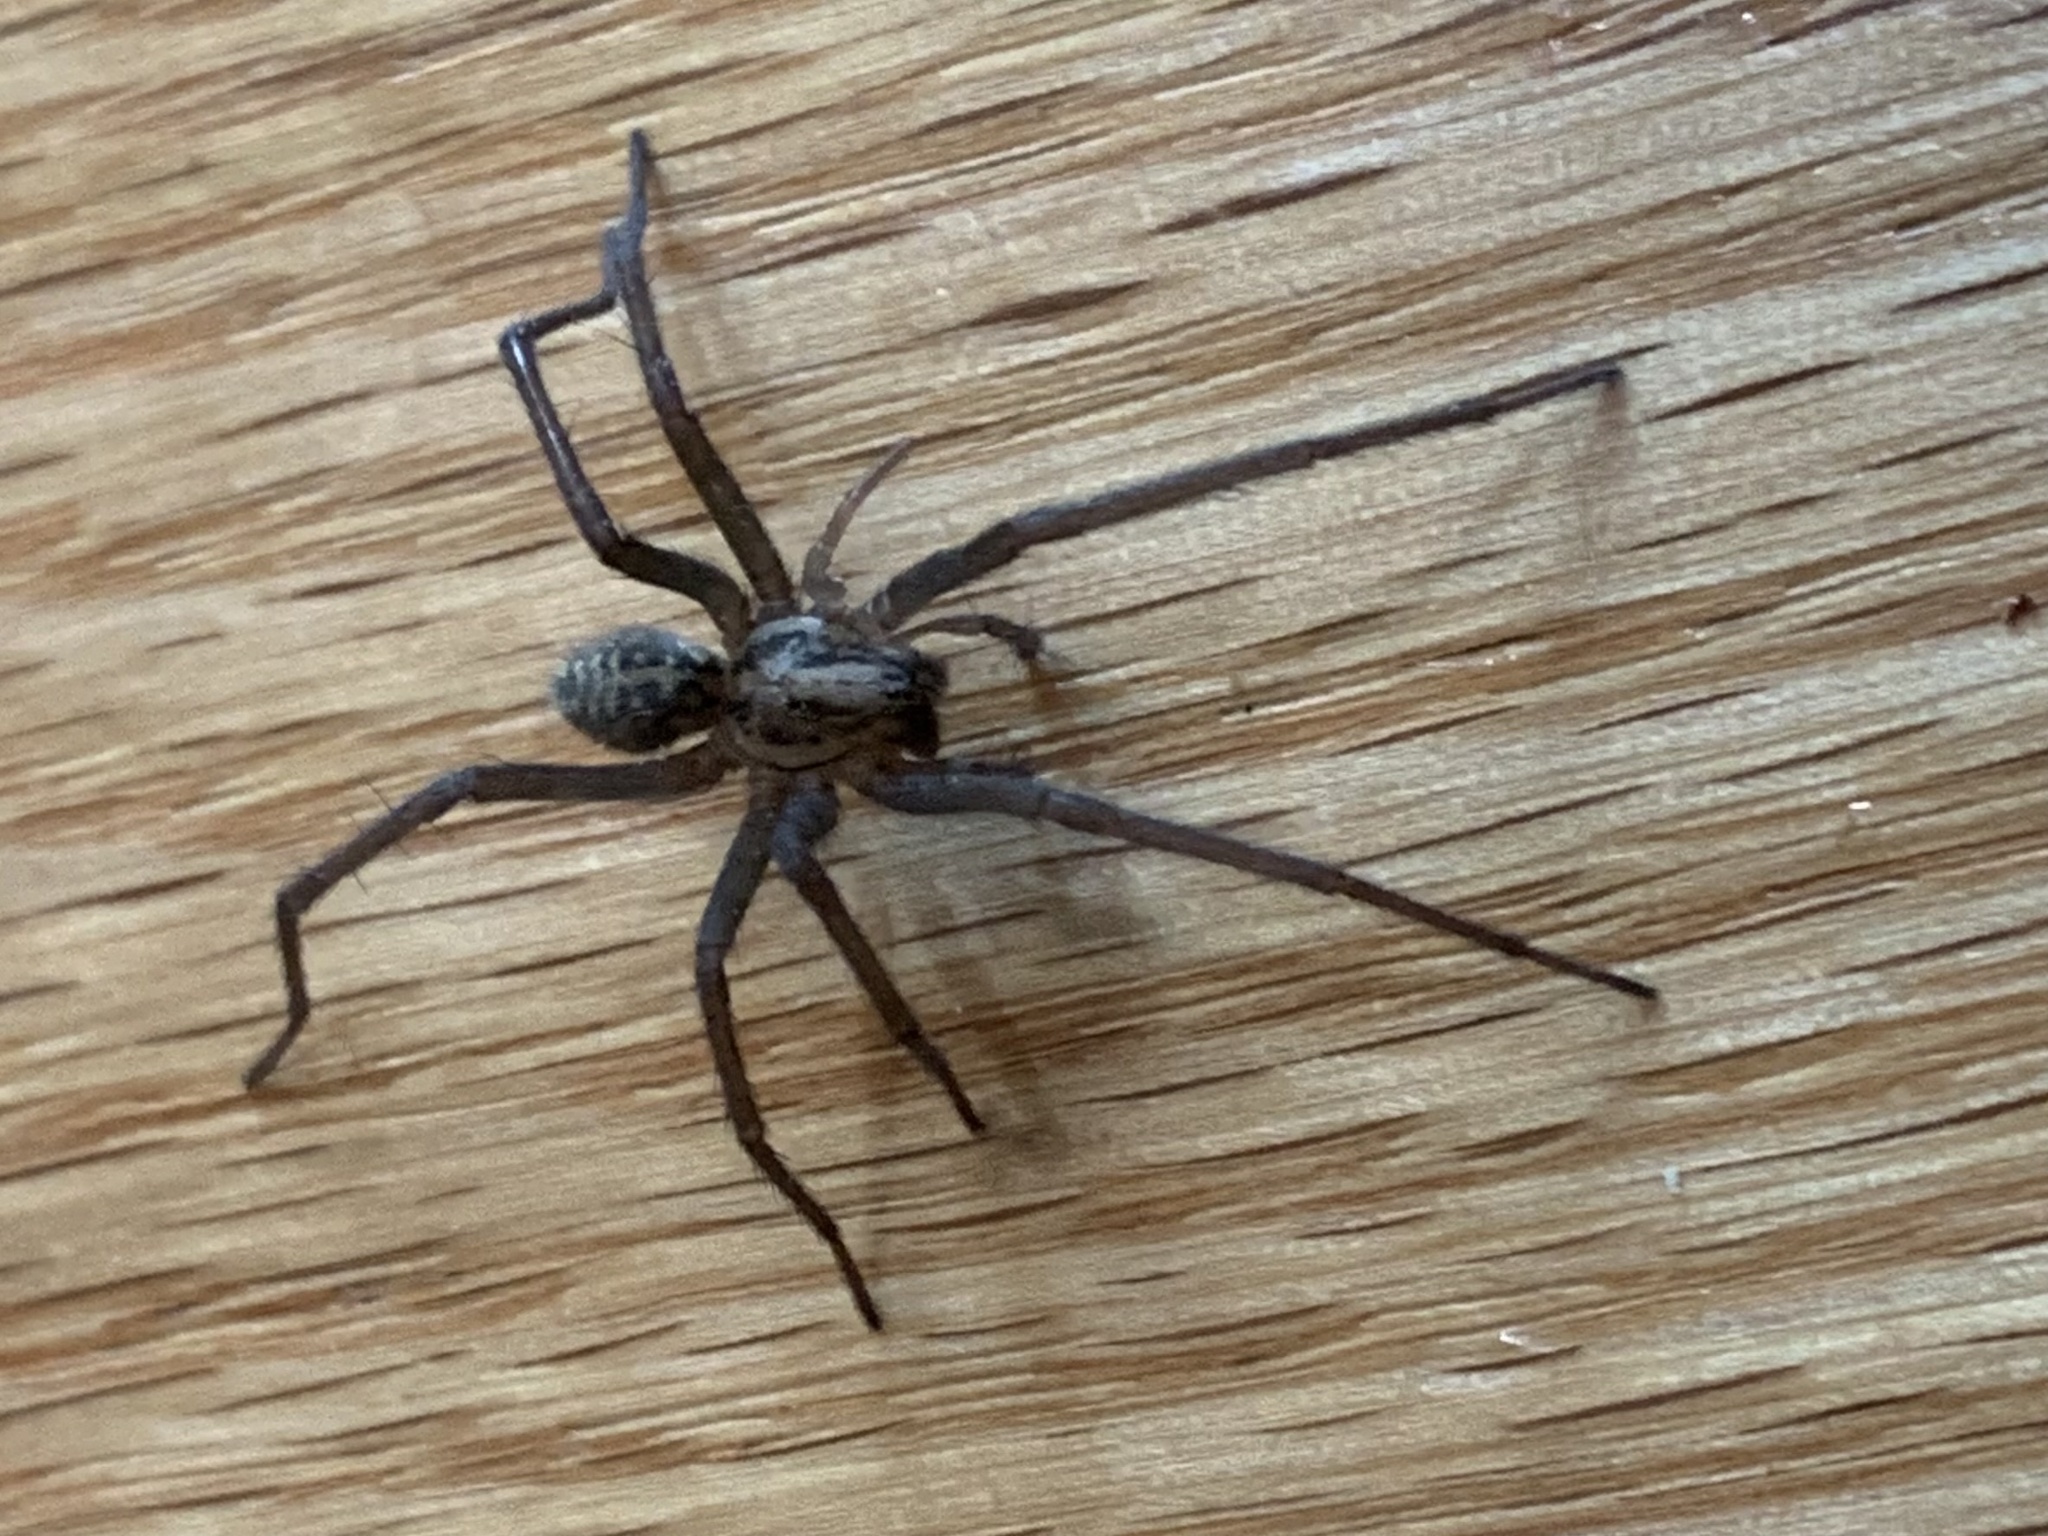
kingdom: Animalia
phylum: Arthropoda
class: Arachnida
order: Araneae
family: Agelenidae
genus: Eratigena
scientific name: Eratigena duellica
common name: Giant house spider
